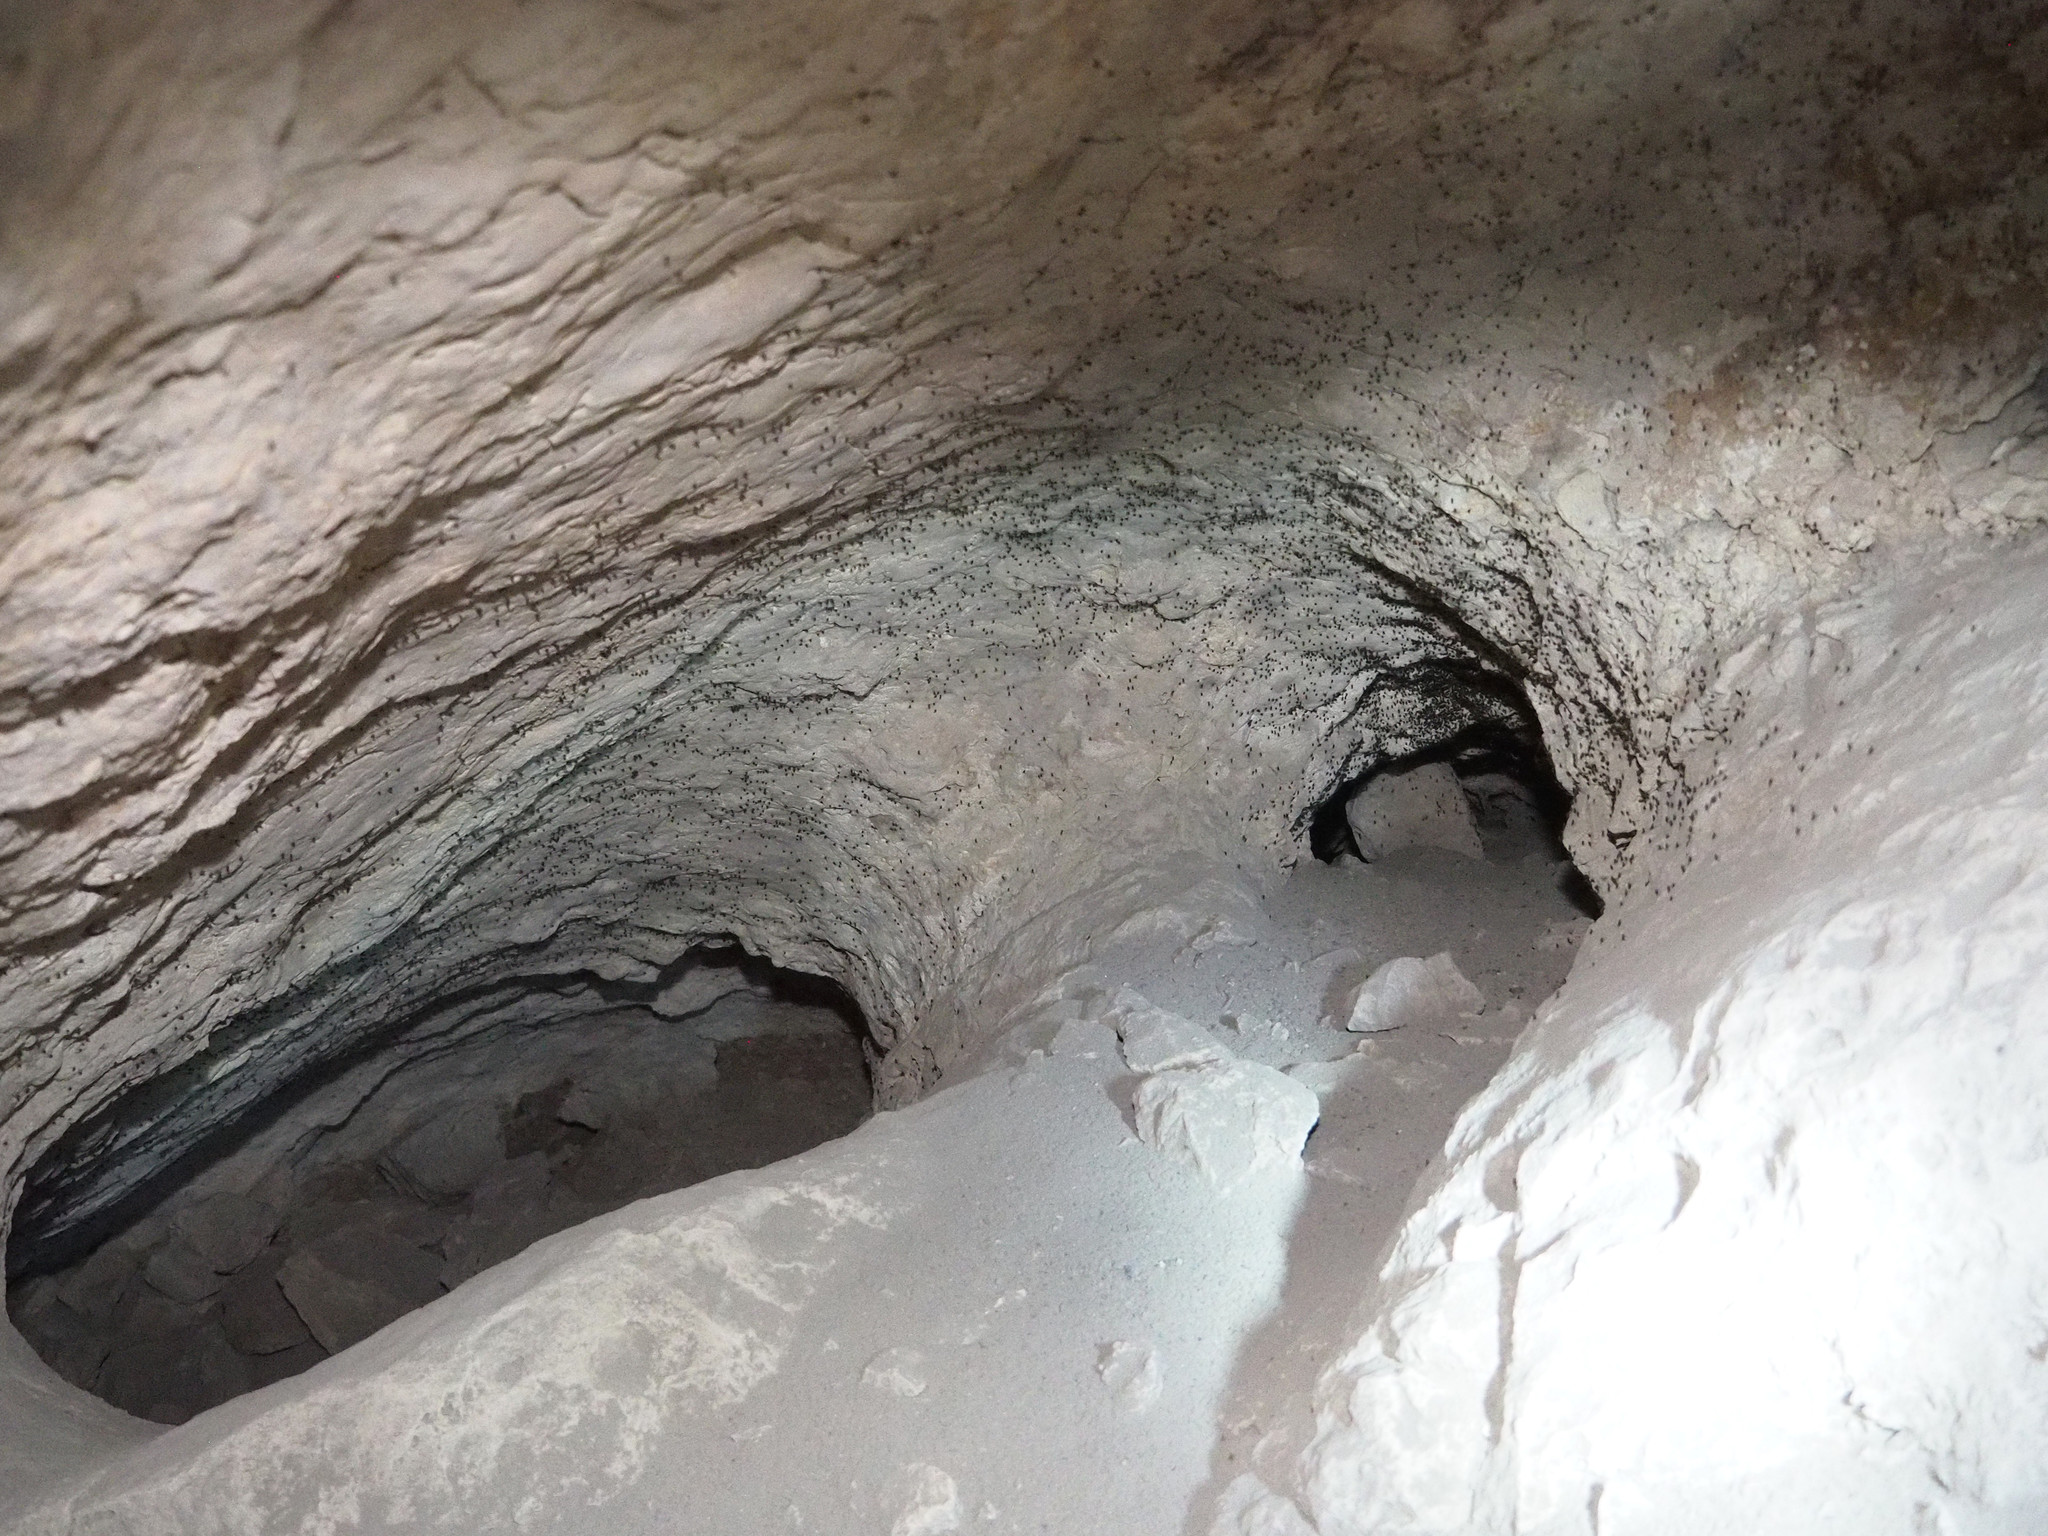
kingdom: Animalia
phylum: Arthropoda
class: Insecta
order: Diptera
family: Dolichopodidae
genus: Medetera
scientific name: Medetera saxatilis
